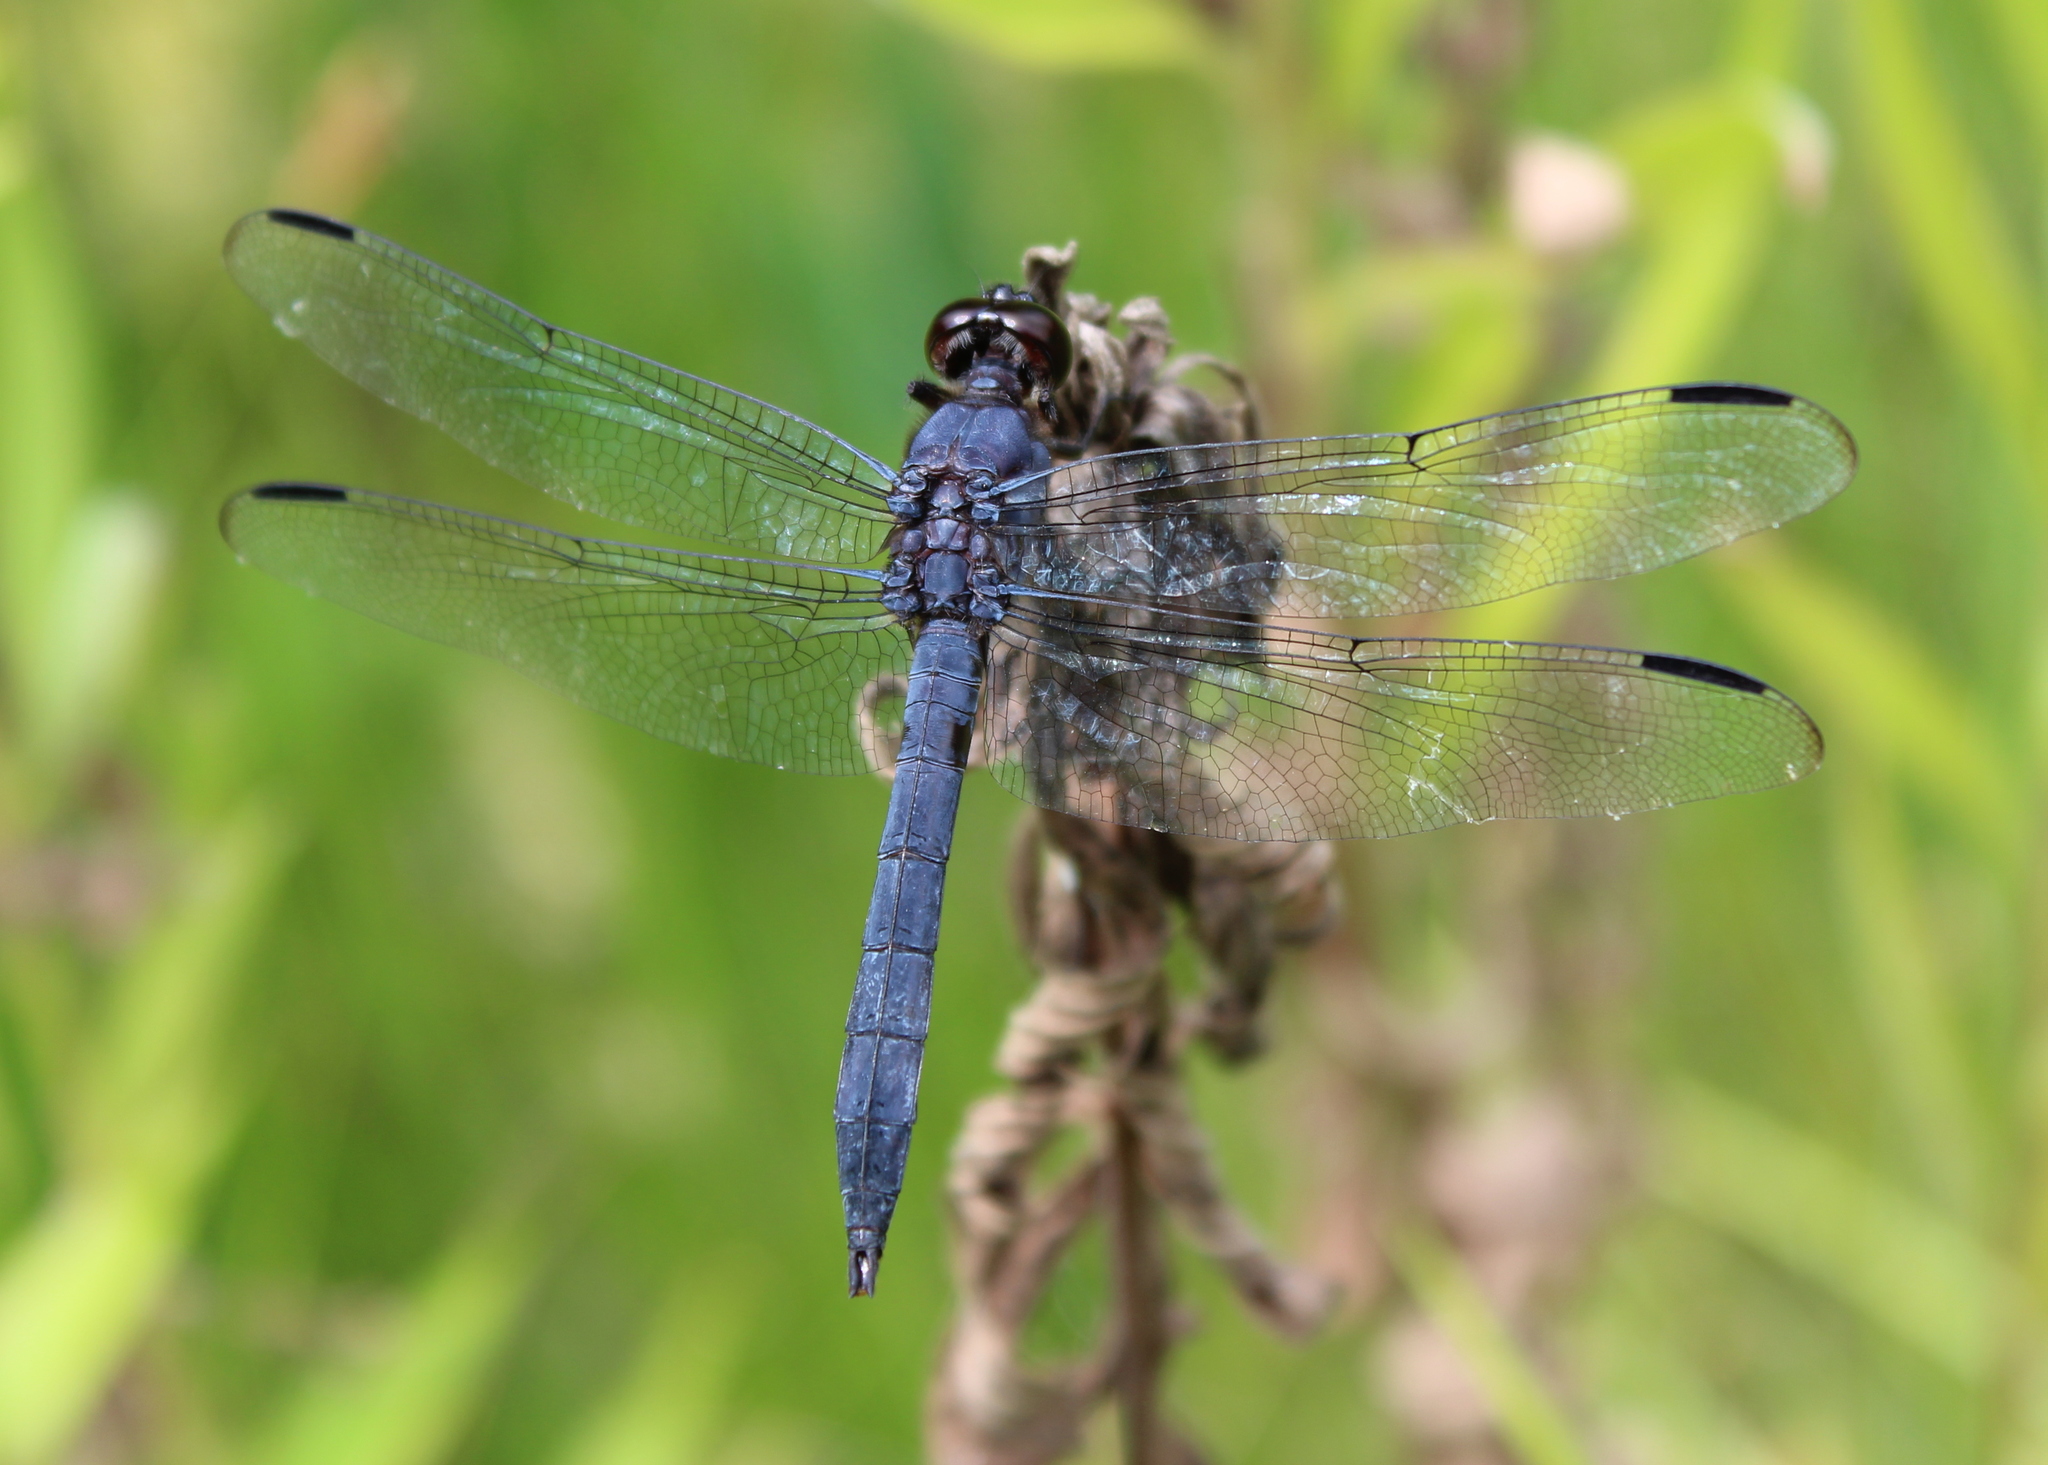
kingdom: Animalia
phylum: Arthropoda
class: Insecta
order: Odonata
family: Libellulidae
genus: Libellula
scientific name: Libellula incesta
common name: Slaty skimmer
